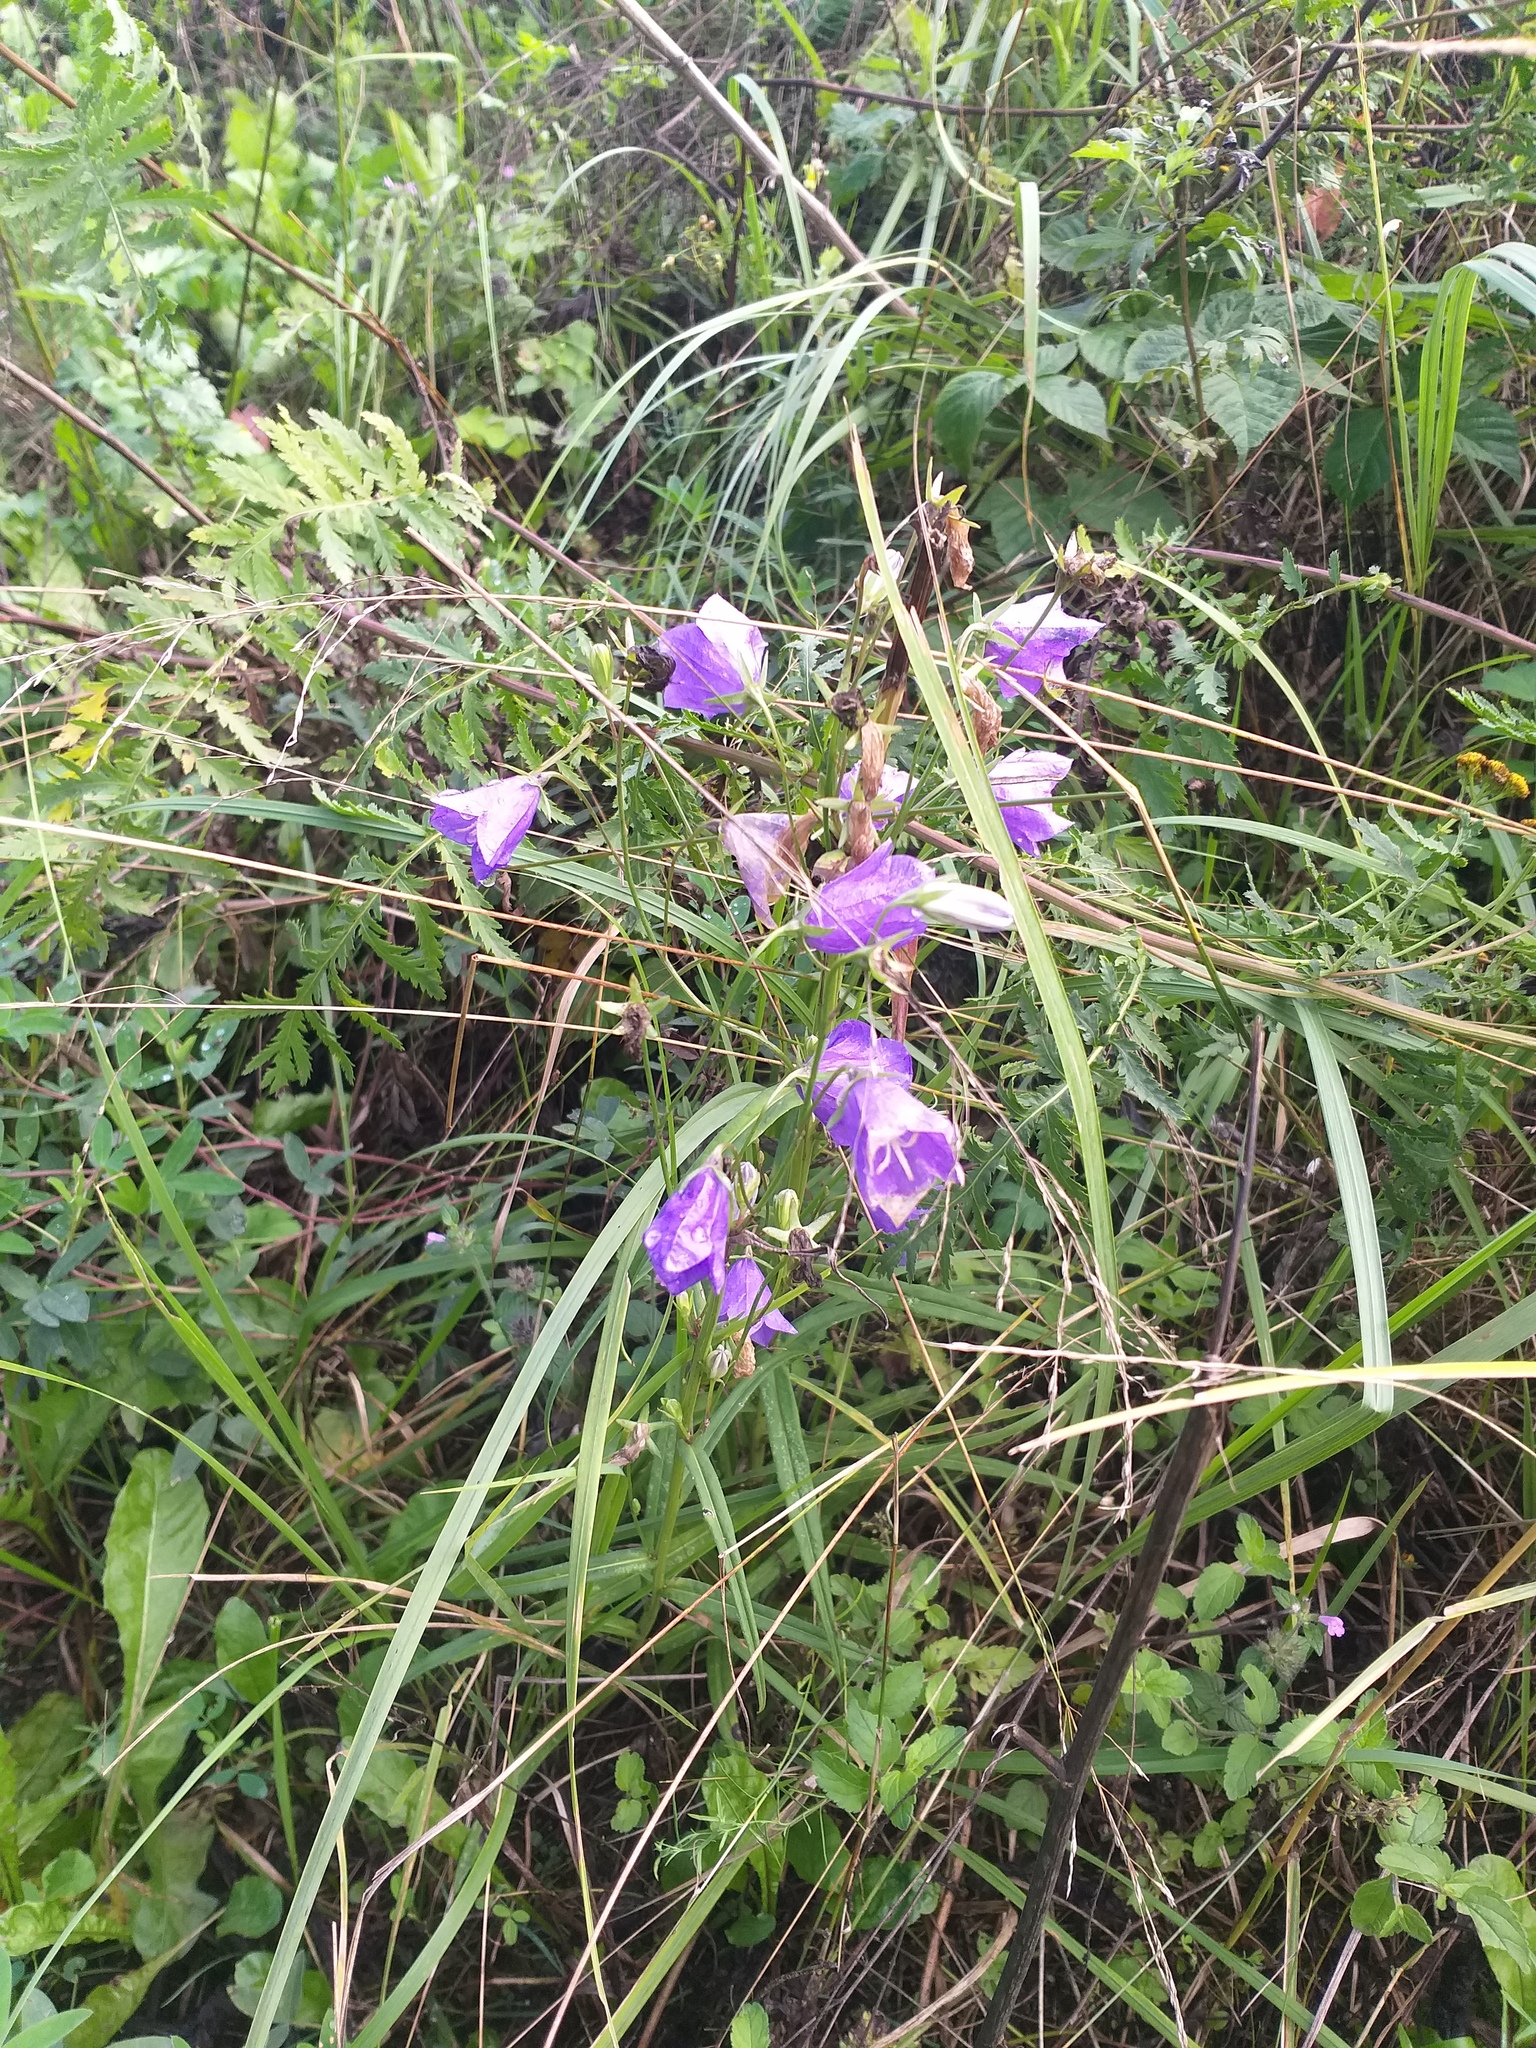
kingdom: Plantae
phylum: Tracheophyta
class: Magnoliopsida
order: Asterales
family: Campanulaceae
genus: Campanula
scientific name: Campanula persicifolia
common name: Peach-leaved bellflower
